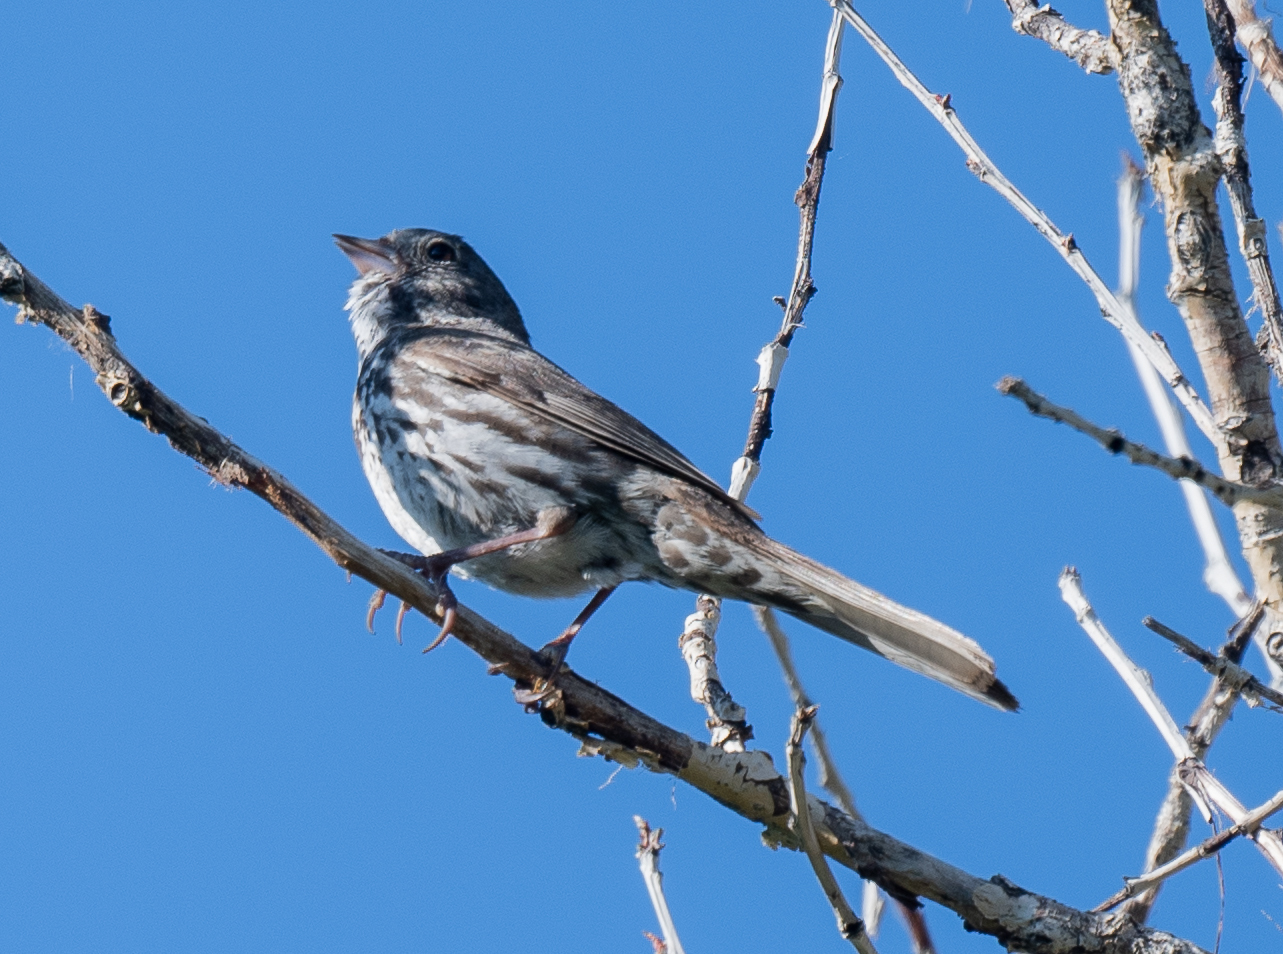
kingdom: Animalia
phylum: Chordata
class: Aves
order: Passeriformes
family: Passerellidae
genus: Passerella
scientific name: Passerella iliaca
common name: Fox sparrow
